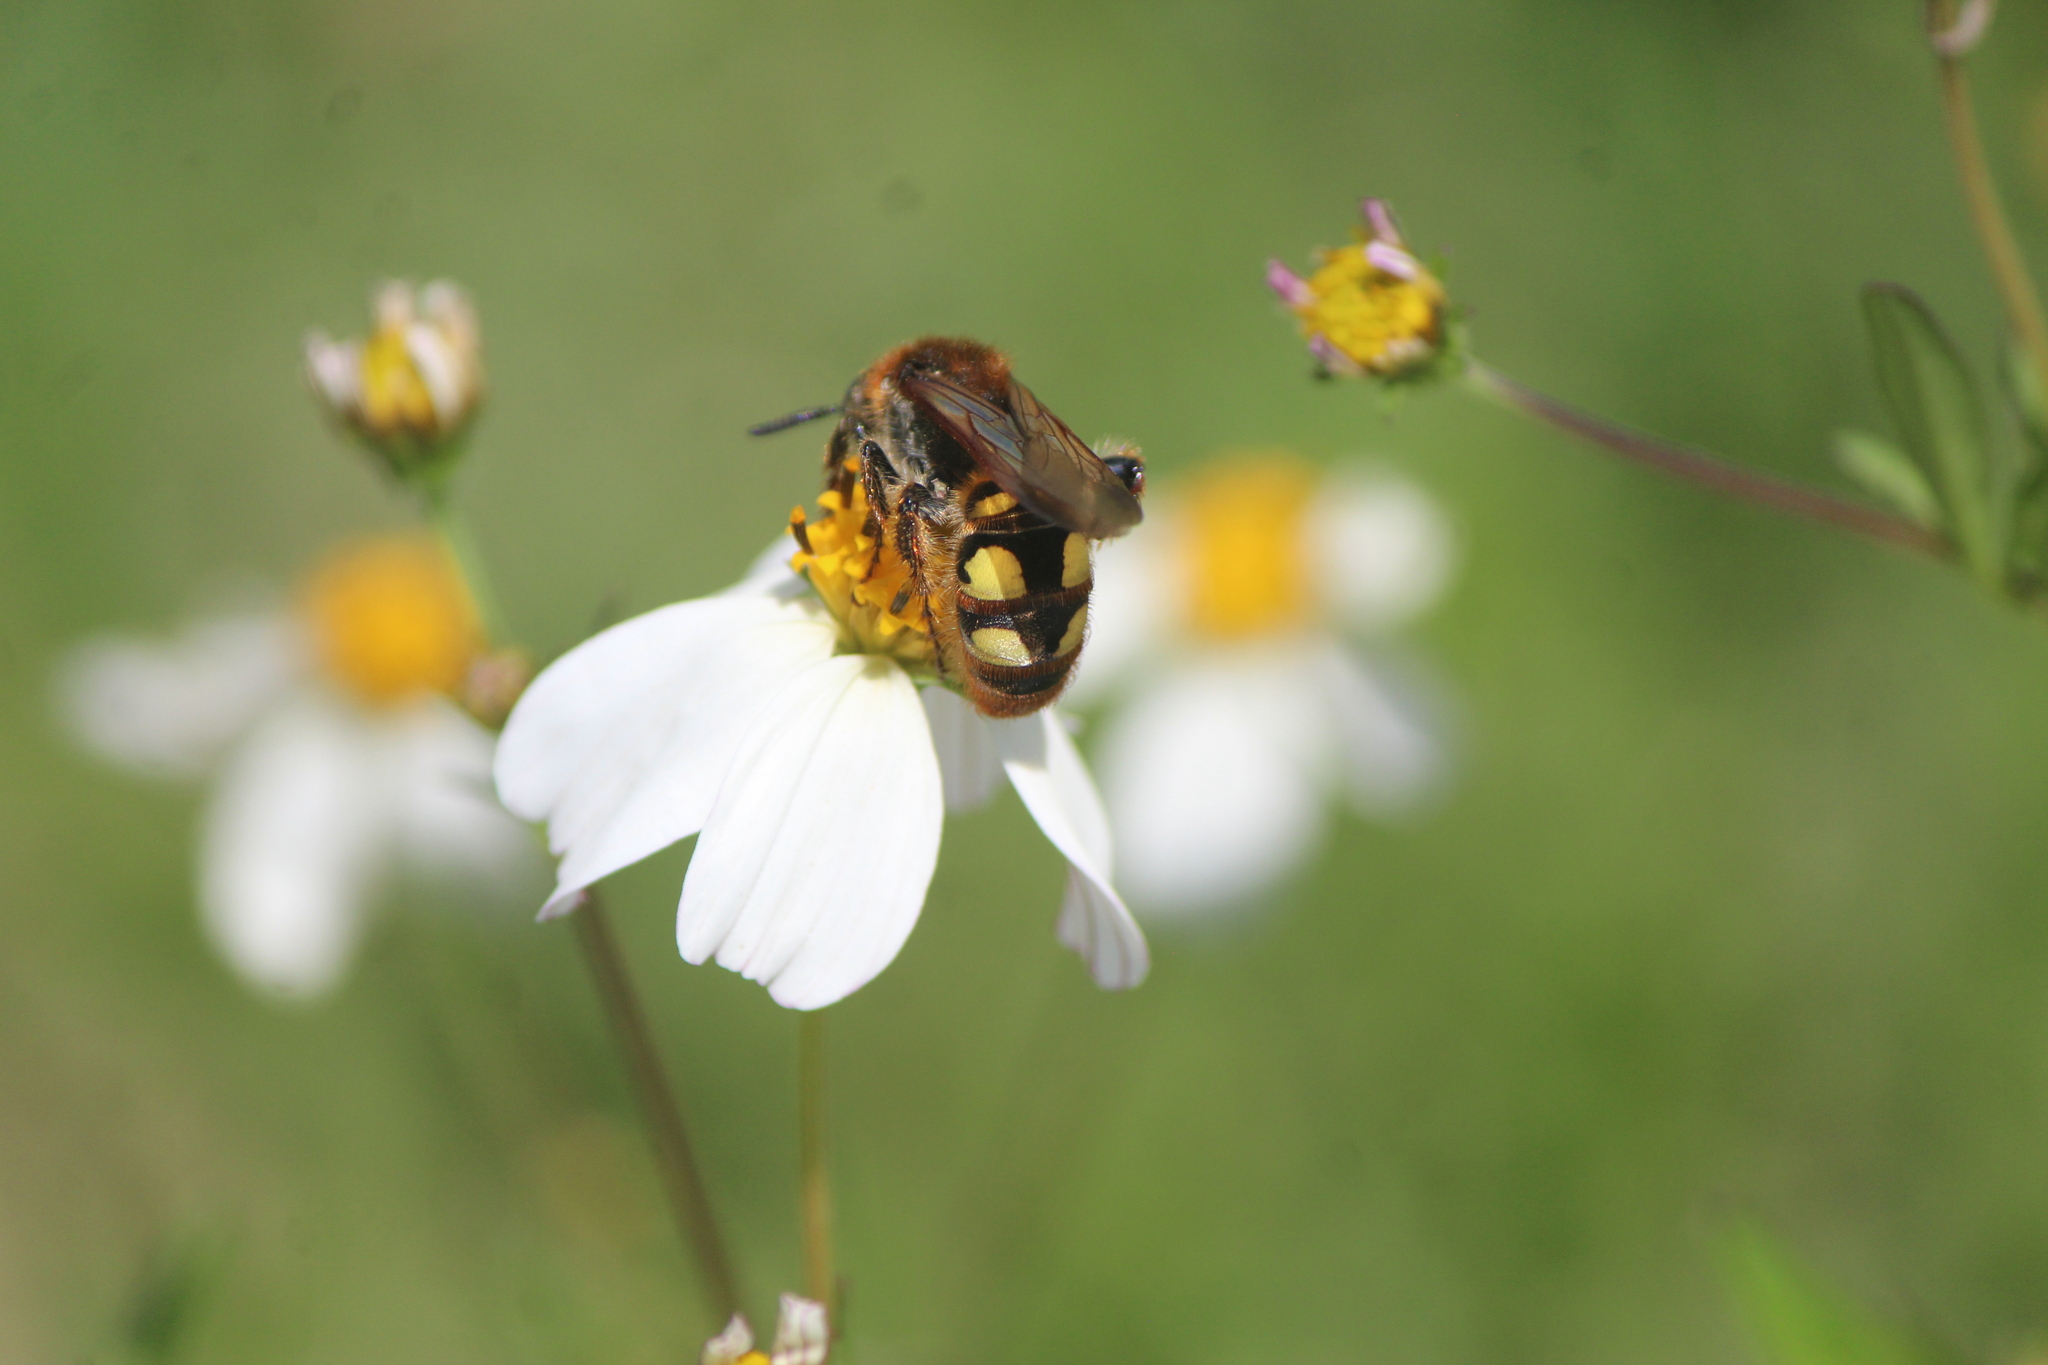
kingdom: Animalia
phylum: Arthropoda
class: Insecta
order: Hymenoptera
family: Scoliidae
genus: Xantocampsomeris
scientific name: Xantocampsomeris limosa
